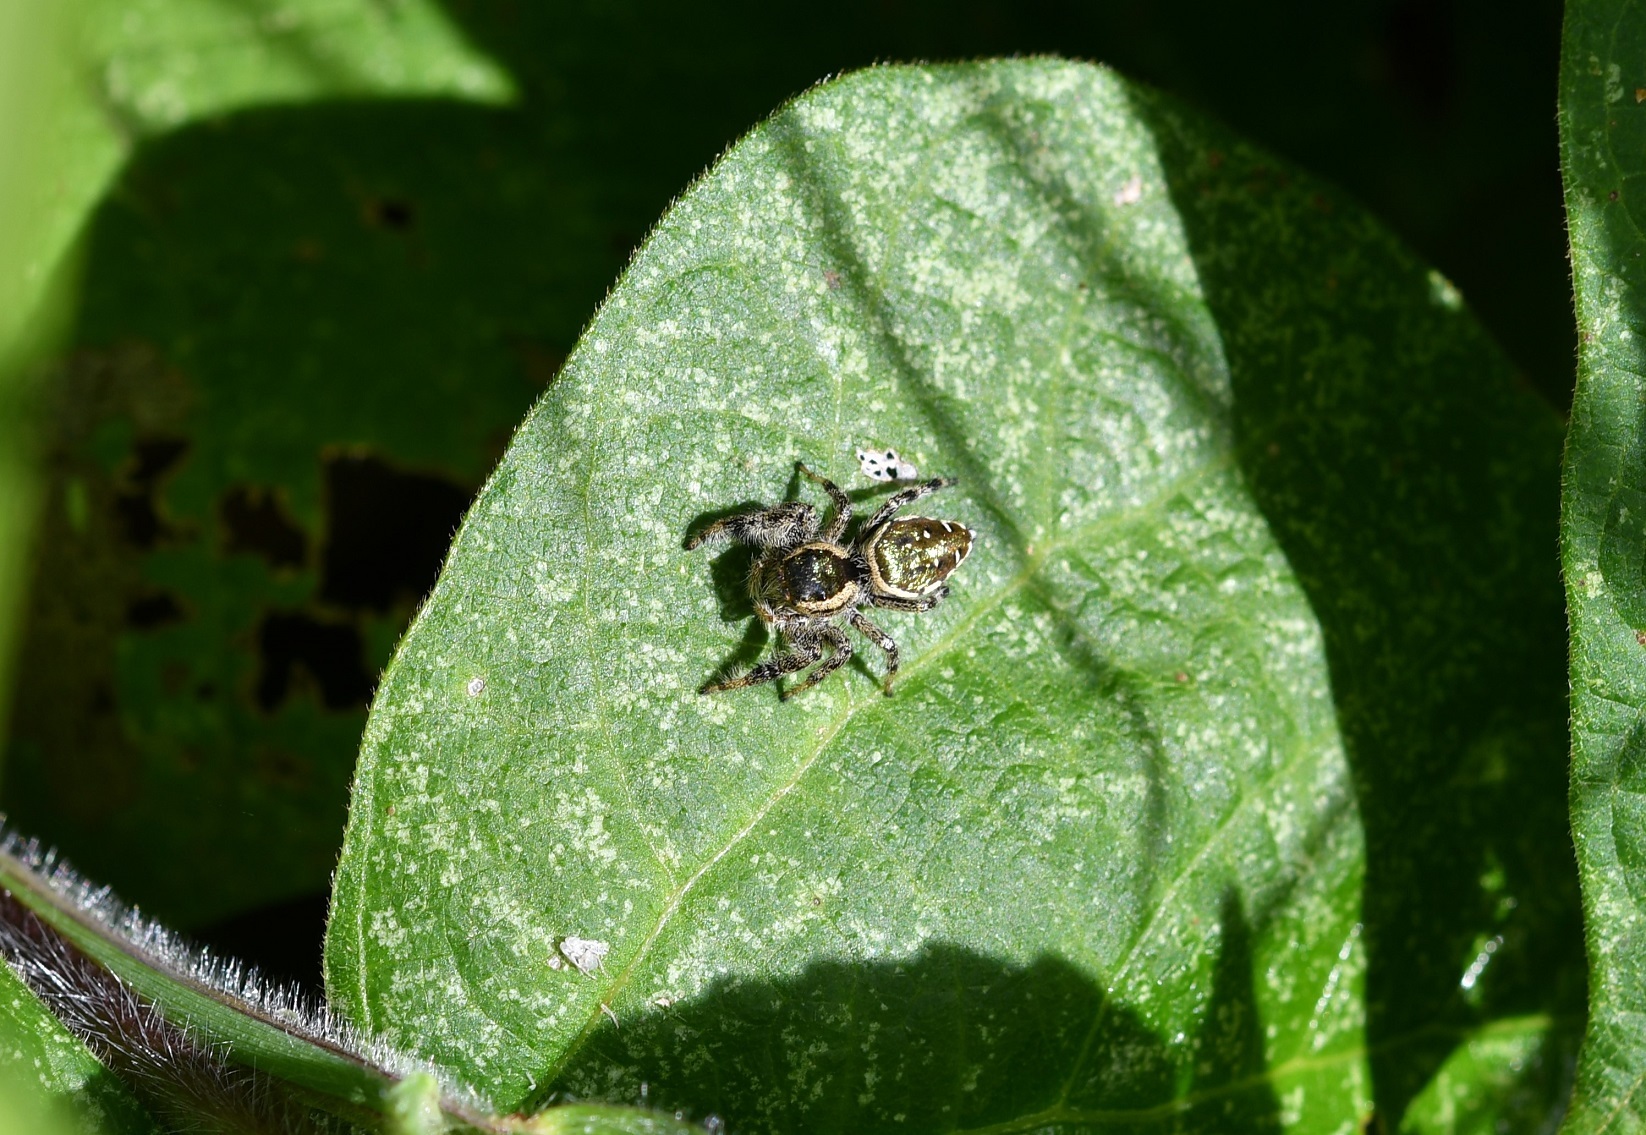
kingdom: Animalia
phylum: Arthropoda
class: Arachnida
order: Araneae
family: Salticidae
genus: Paraphidippus
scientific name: Paraphidippus aurantius
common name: Jumping spiders
